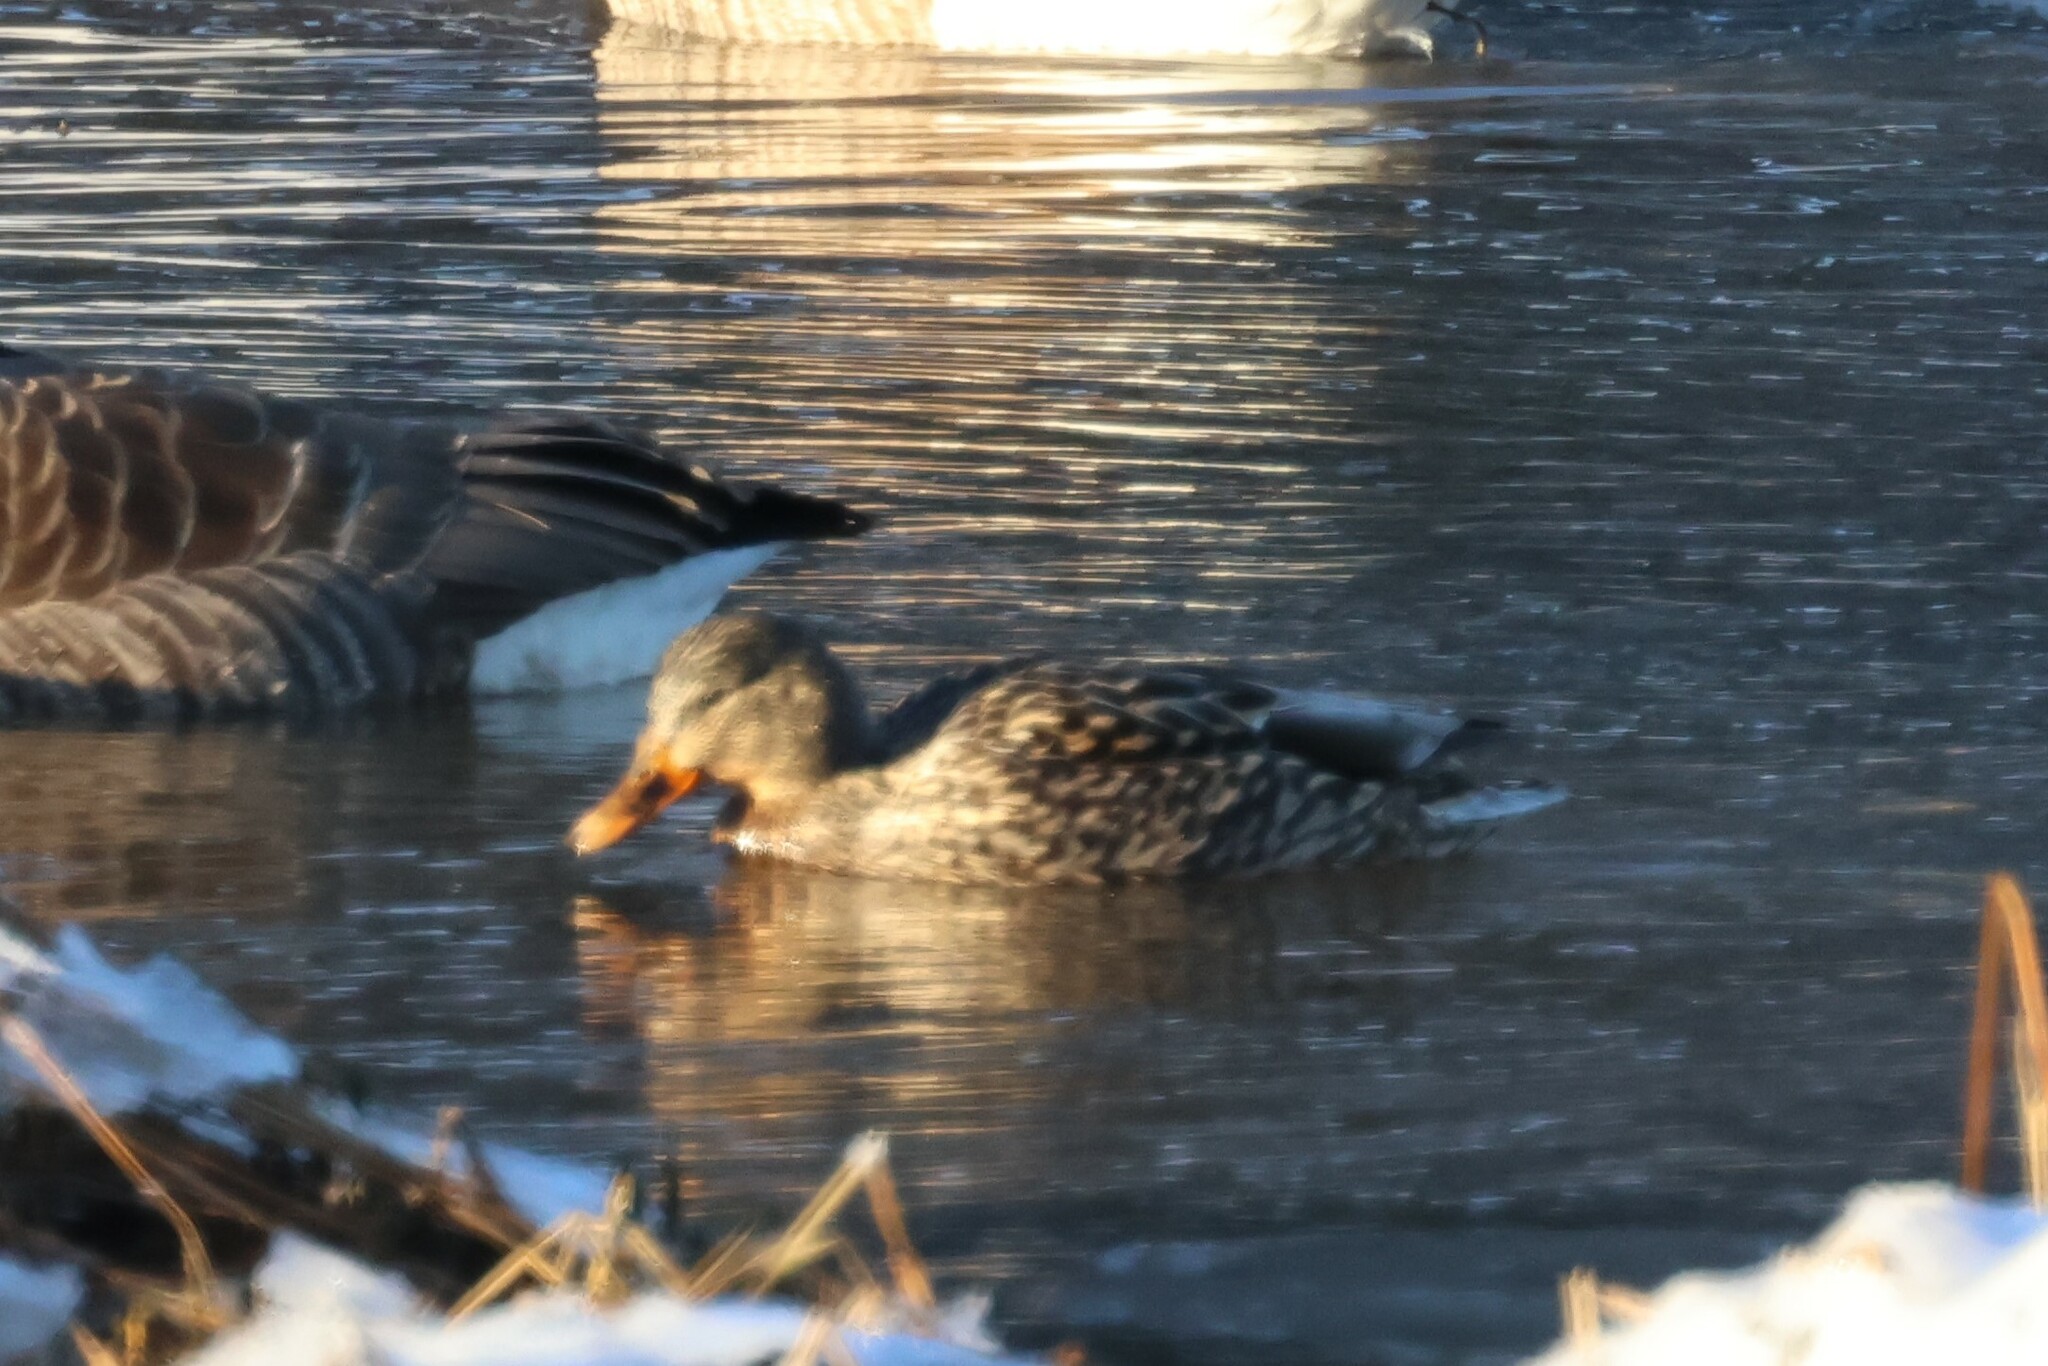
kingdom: Animalia
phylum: Chordata
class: Aves
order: Anseriformes
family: Anatidae
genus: Anas
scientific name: Anas platyrhynchos
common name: Mallard
